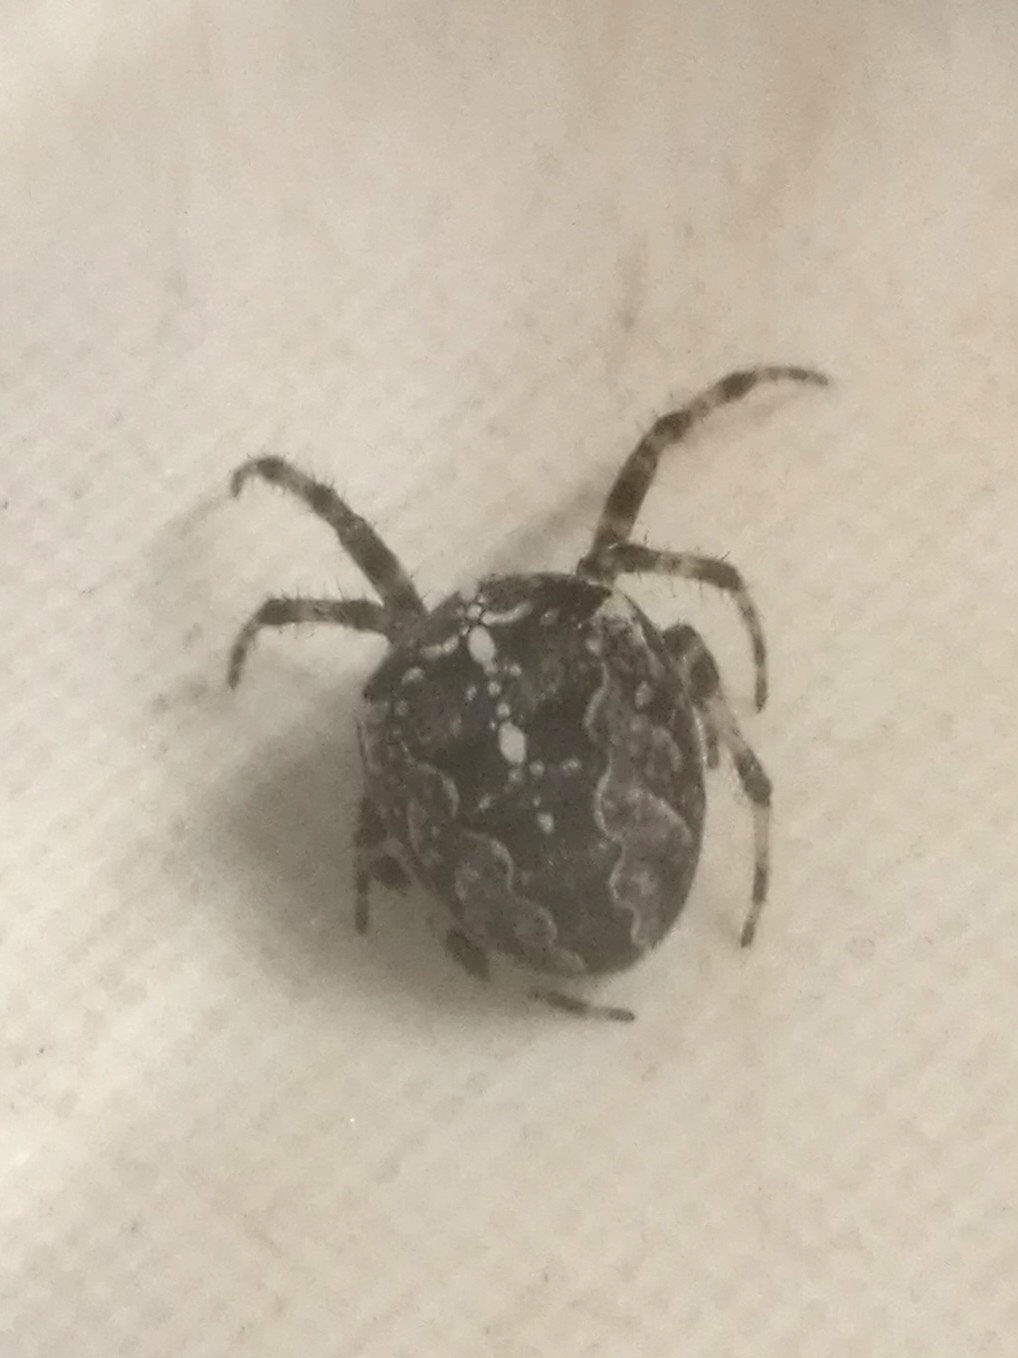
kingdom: Animalia
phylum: Arthropoda
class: Arachnida
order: Araneae
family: Araneidae
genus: Araneus
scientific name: Araneus diadematus
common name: Cross orbweaver
